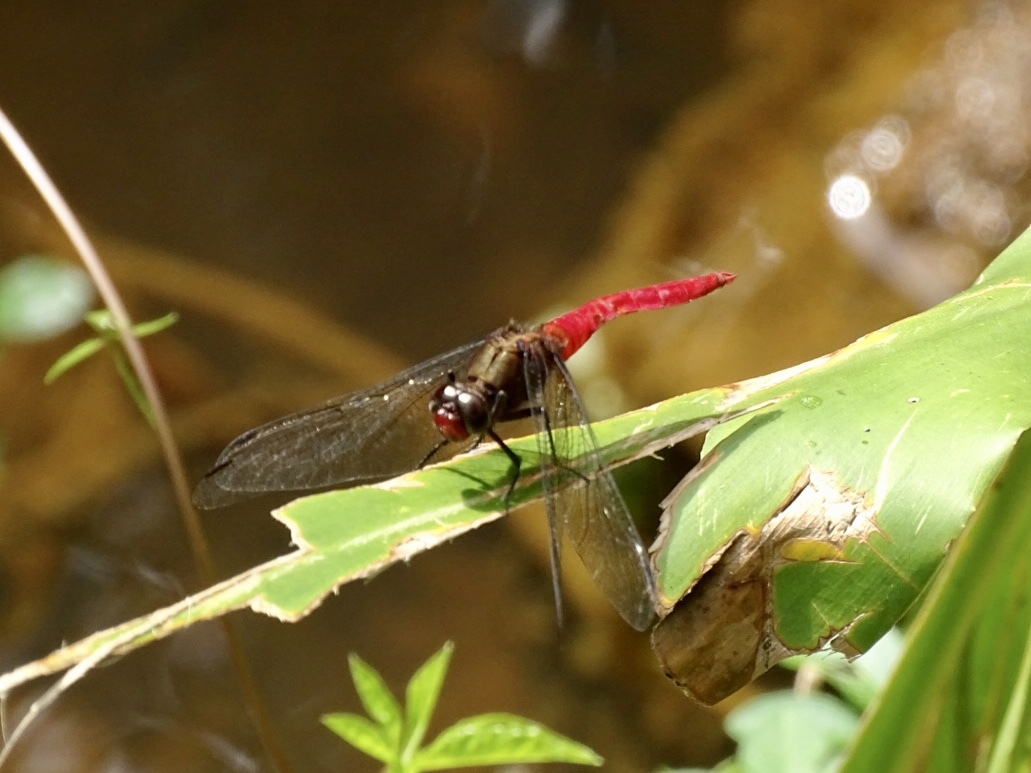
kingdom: Animalia
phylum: Arthropoda
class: Insecta
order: Odonata
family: Libellulidae
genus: Orthetrum
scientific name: Orthetrum chrysis
